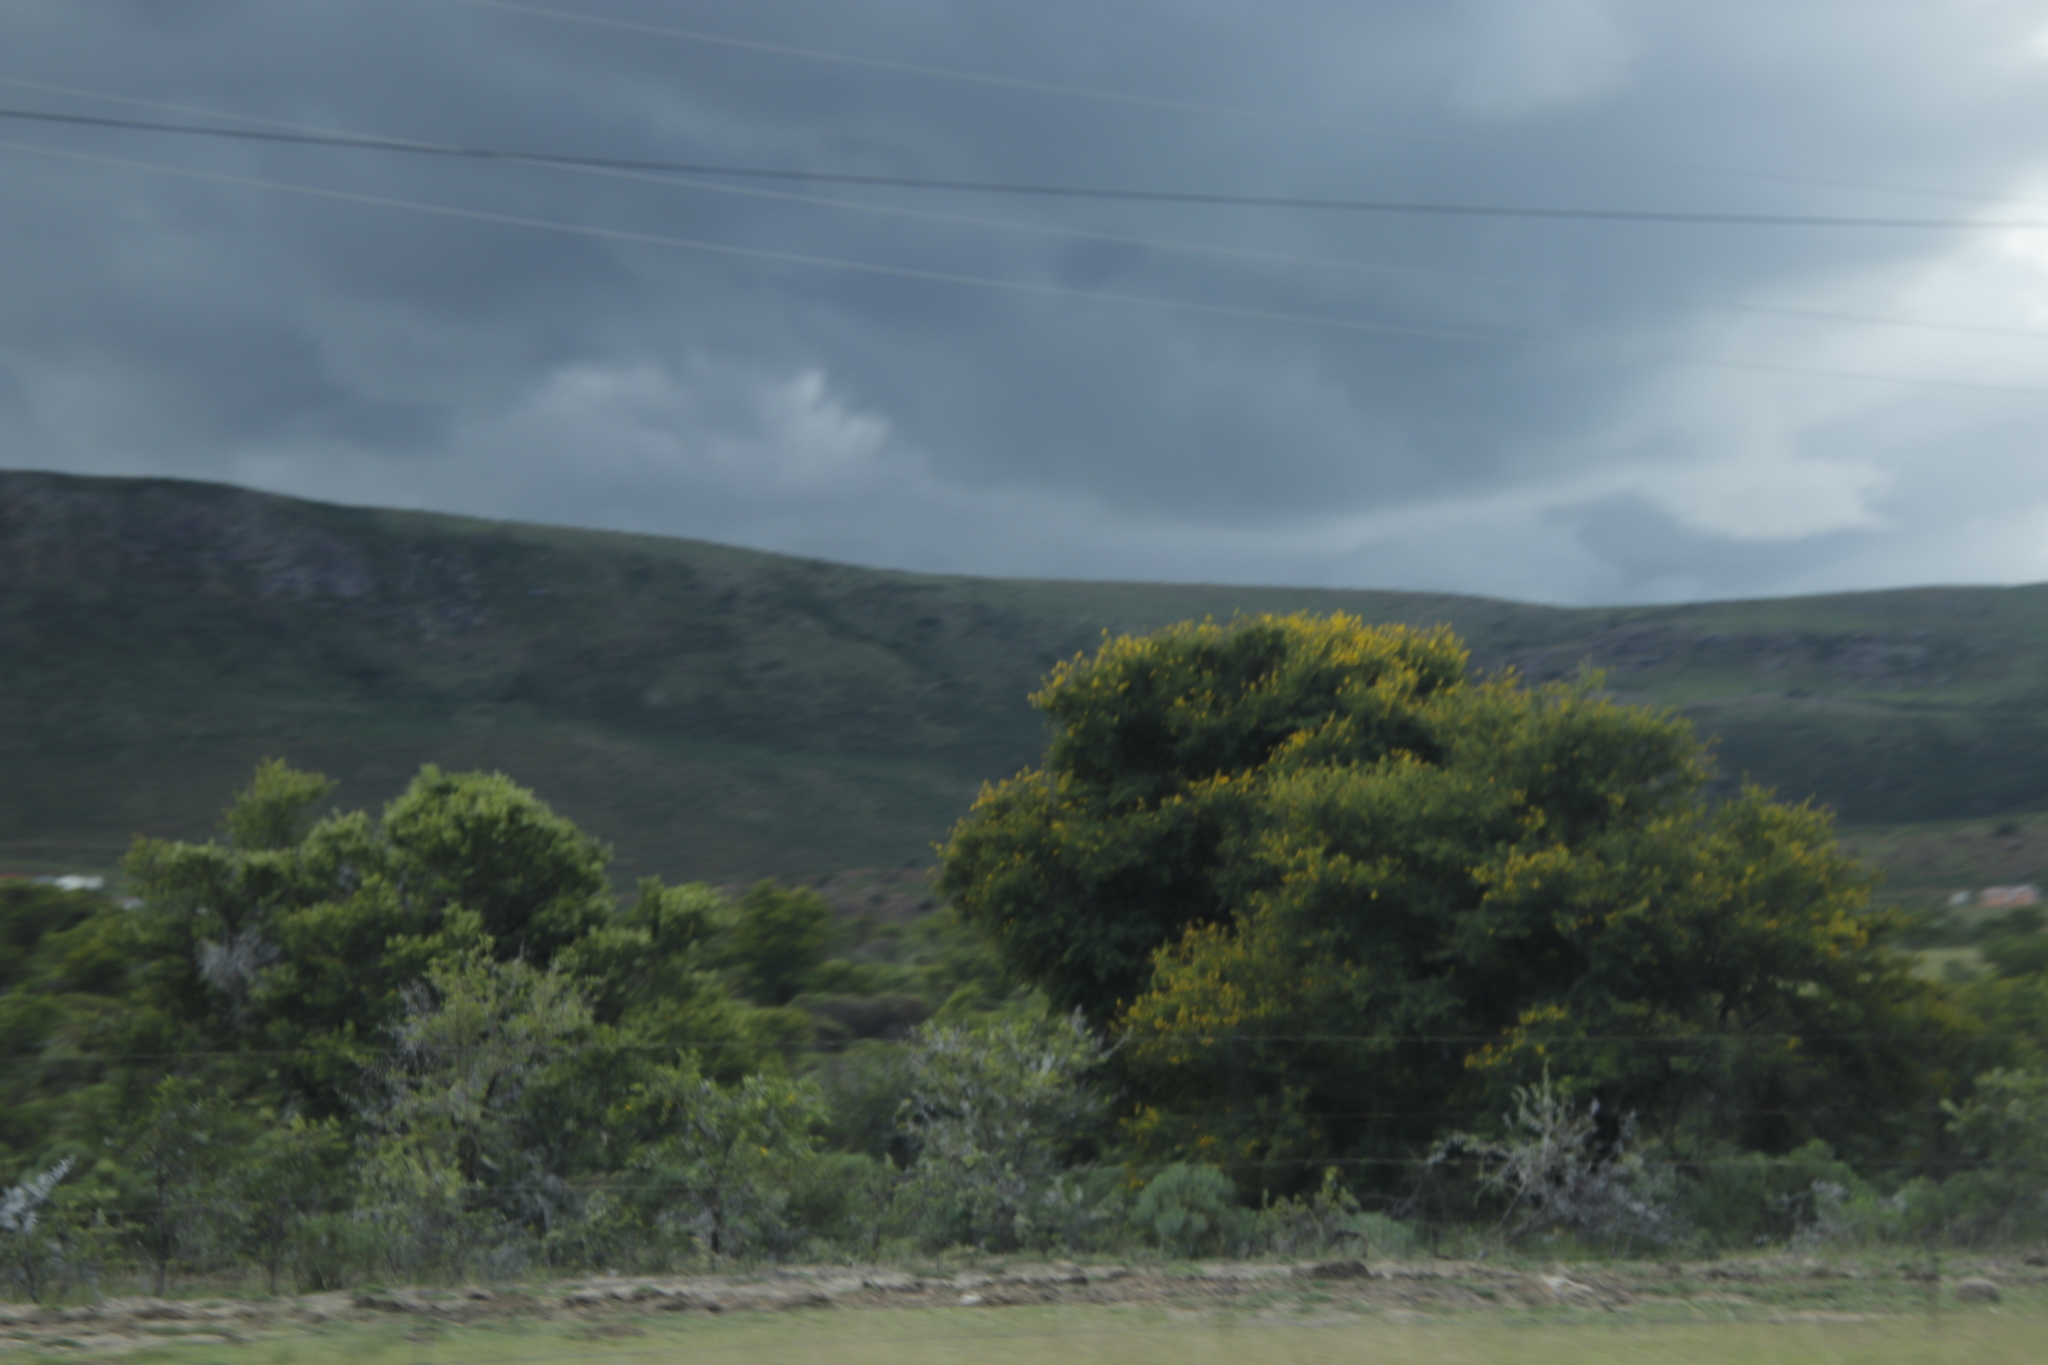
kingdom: Plantae
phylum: Tracheophyta
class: Magnoliopsida
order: Fabales
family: Fabaceae
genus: Vachellia
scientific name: Vachellia karroo
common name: Sweet thorn
